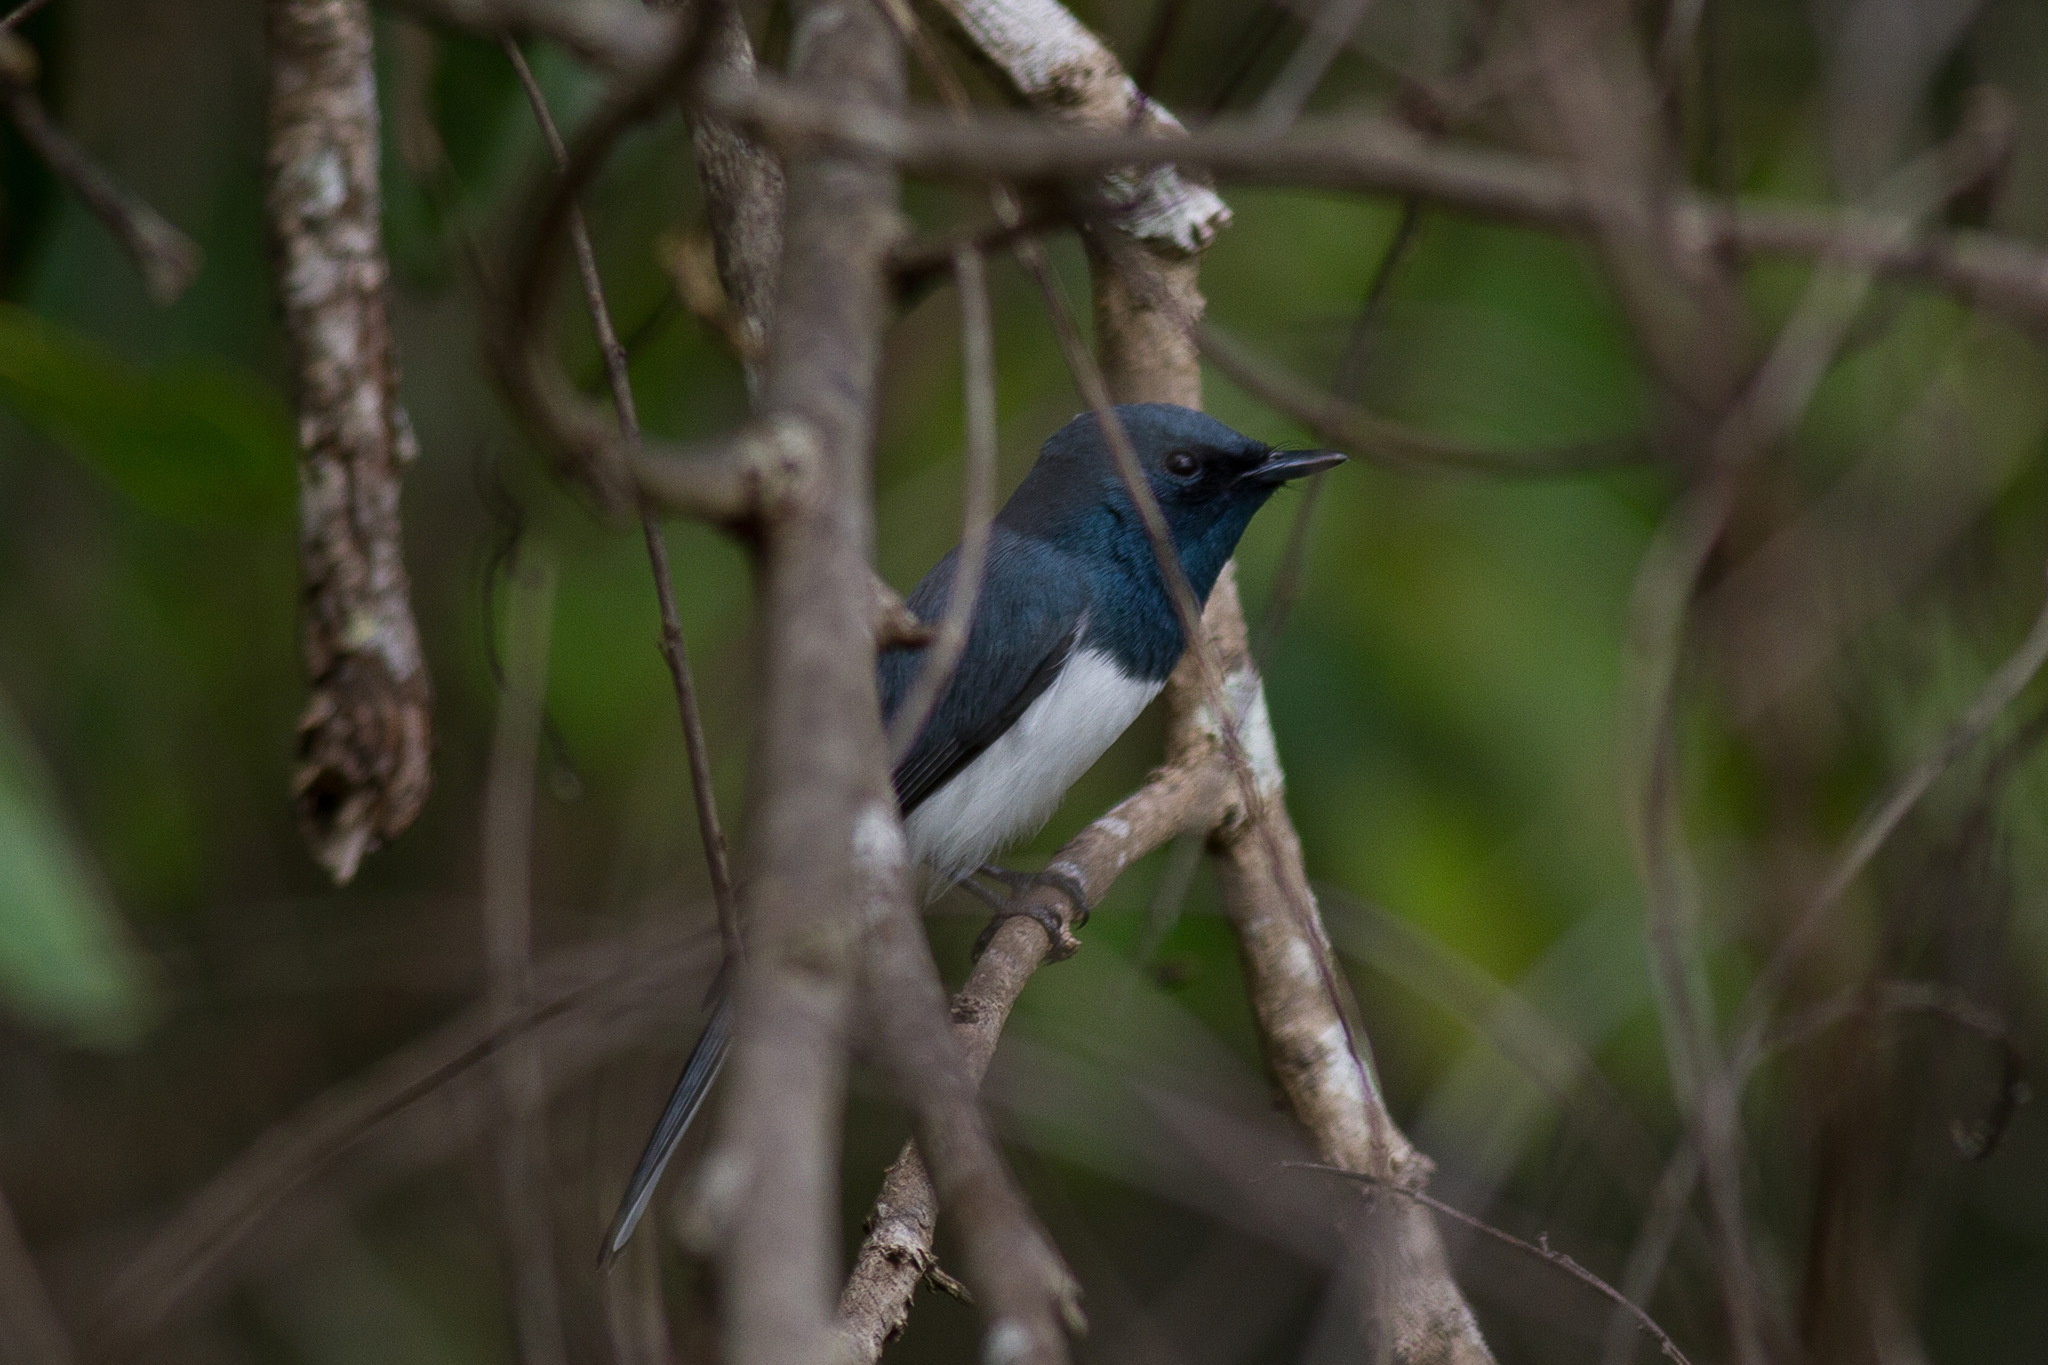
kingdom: Animalia
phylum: Chordata
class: Aves
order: Passeriformes
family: Monarchidae
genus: Myiagra
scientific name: Myiagra rubecula
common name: Leaden flycatcher
